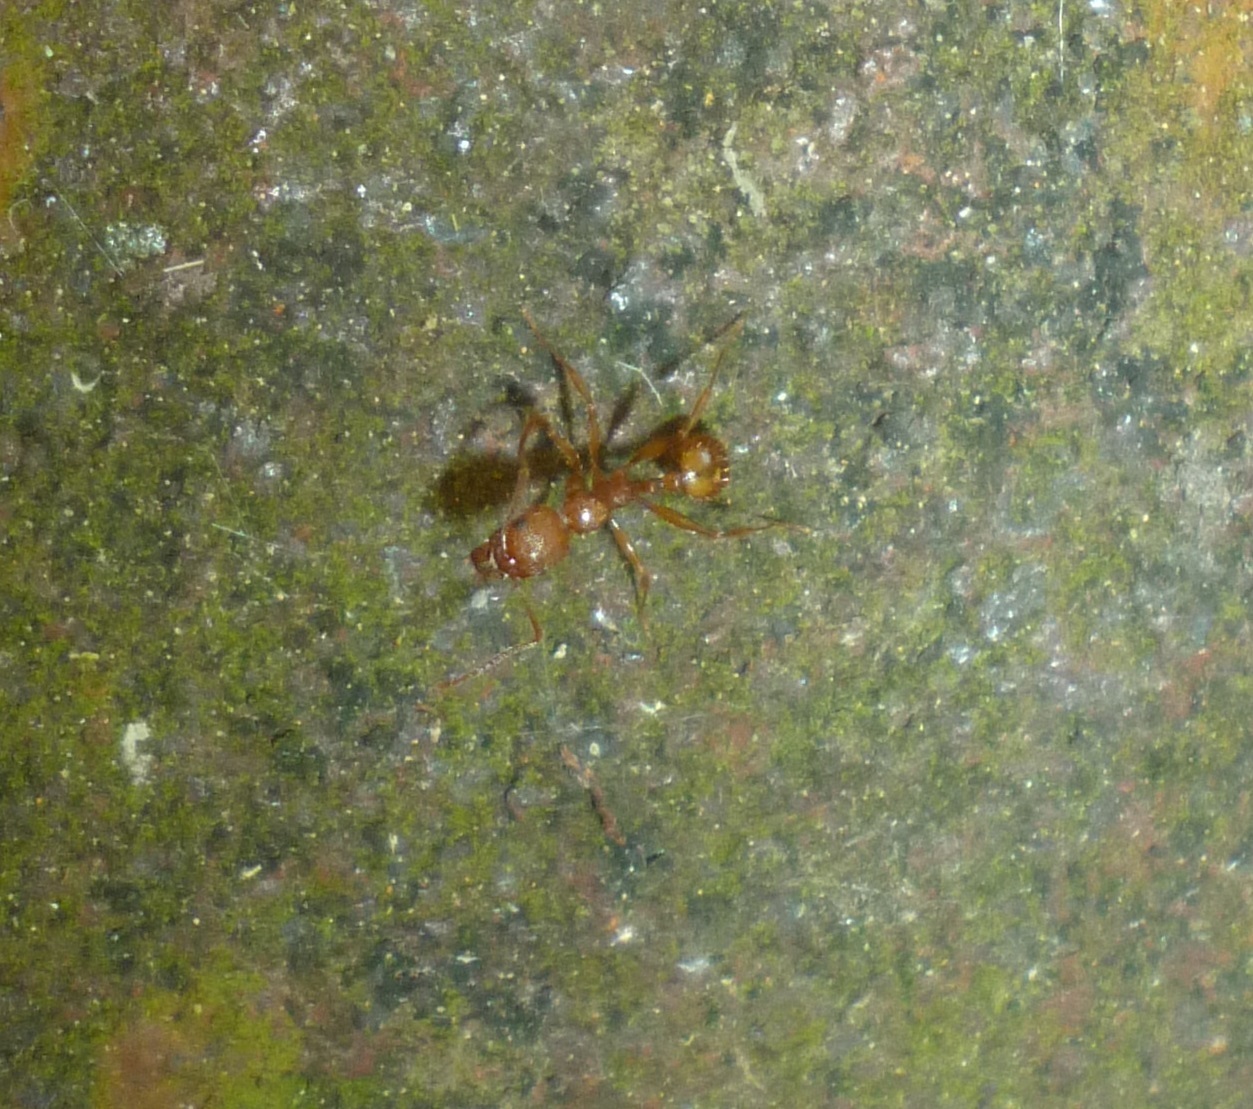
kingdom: Animalia
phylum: Arthropoda
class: Insecta
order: Hymenoptera
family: Formicidae
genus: Aphaenogaster
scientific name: Aphaenogaster kervillei
